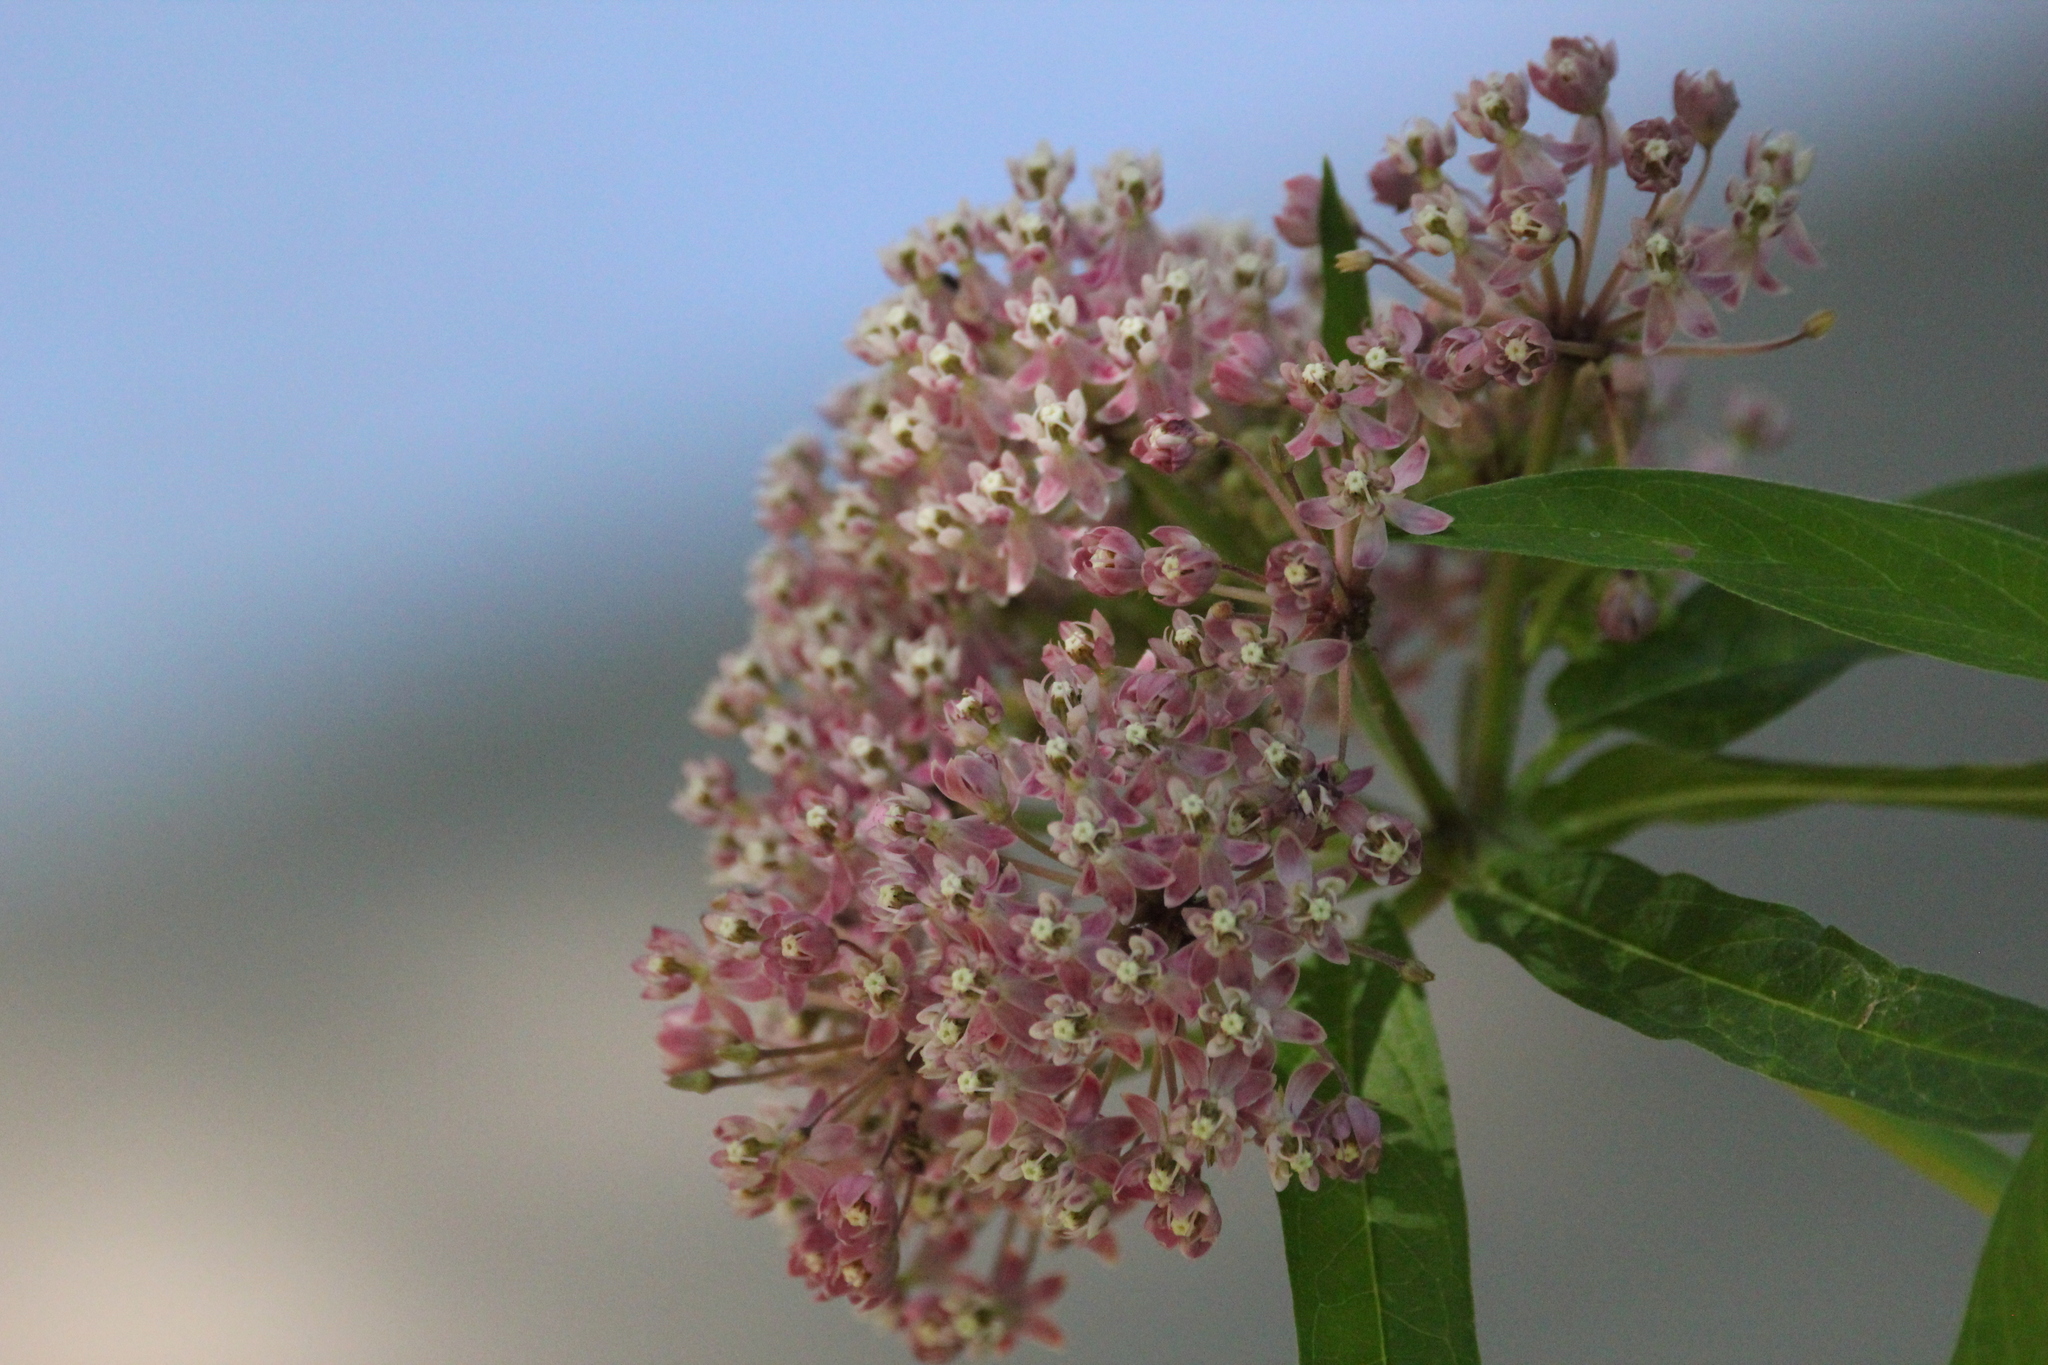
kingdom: Plantae
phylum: Tracheophyta
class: Magnoliopsida
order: Gentianales
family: Apocynaceae
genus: Asclepias
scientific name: Asclepias incarnata
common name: Swamp milkweed
